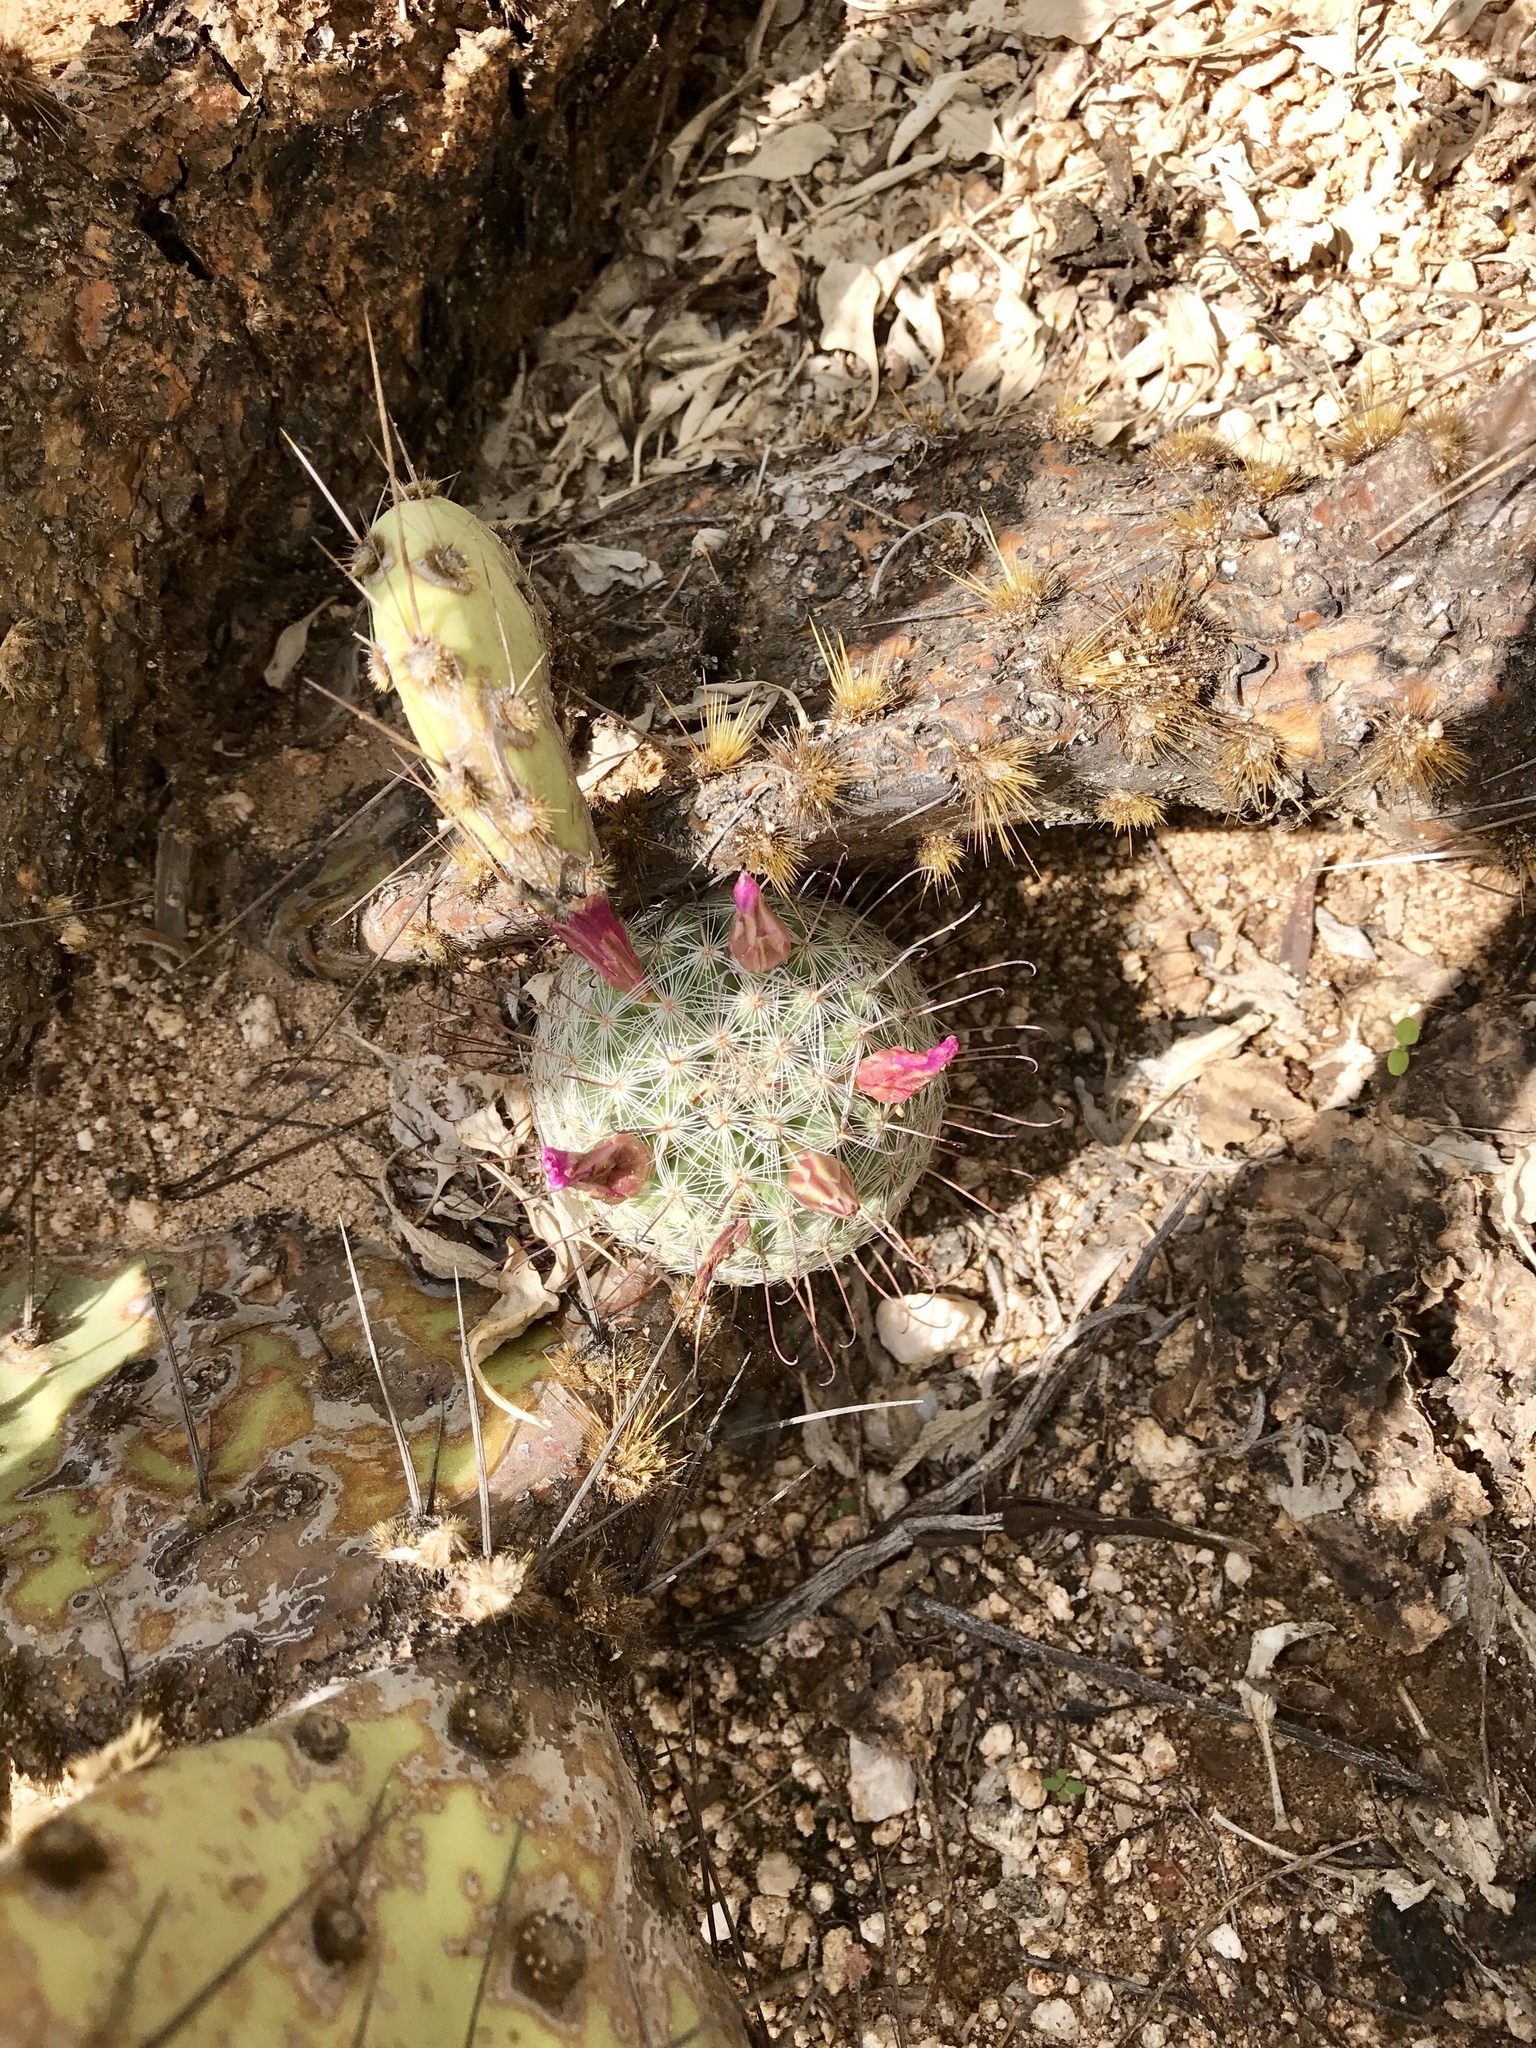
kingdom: Plantae
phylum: Tracheophyta
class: Magnoliopsida
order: Caryophyllales
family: Cactaceae
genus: Cochemiea
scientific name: Cochemiea grahamii
